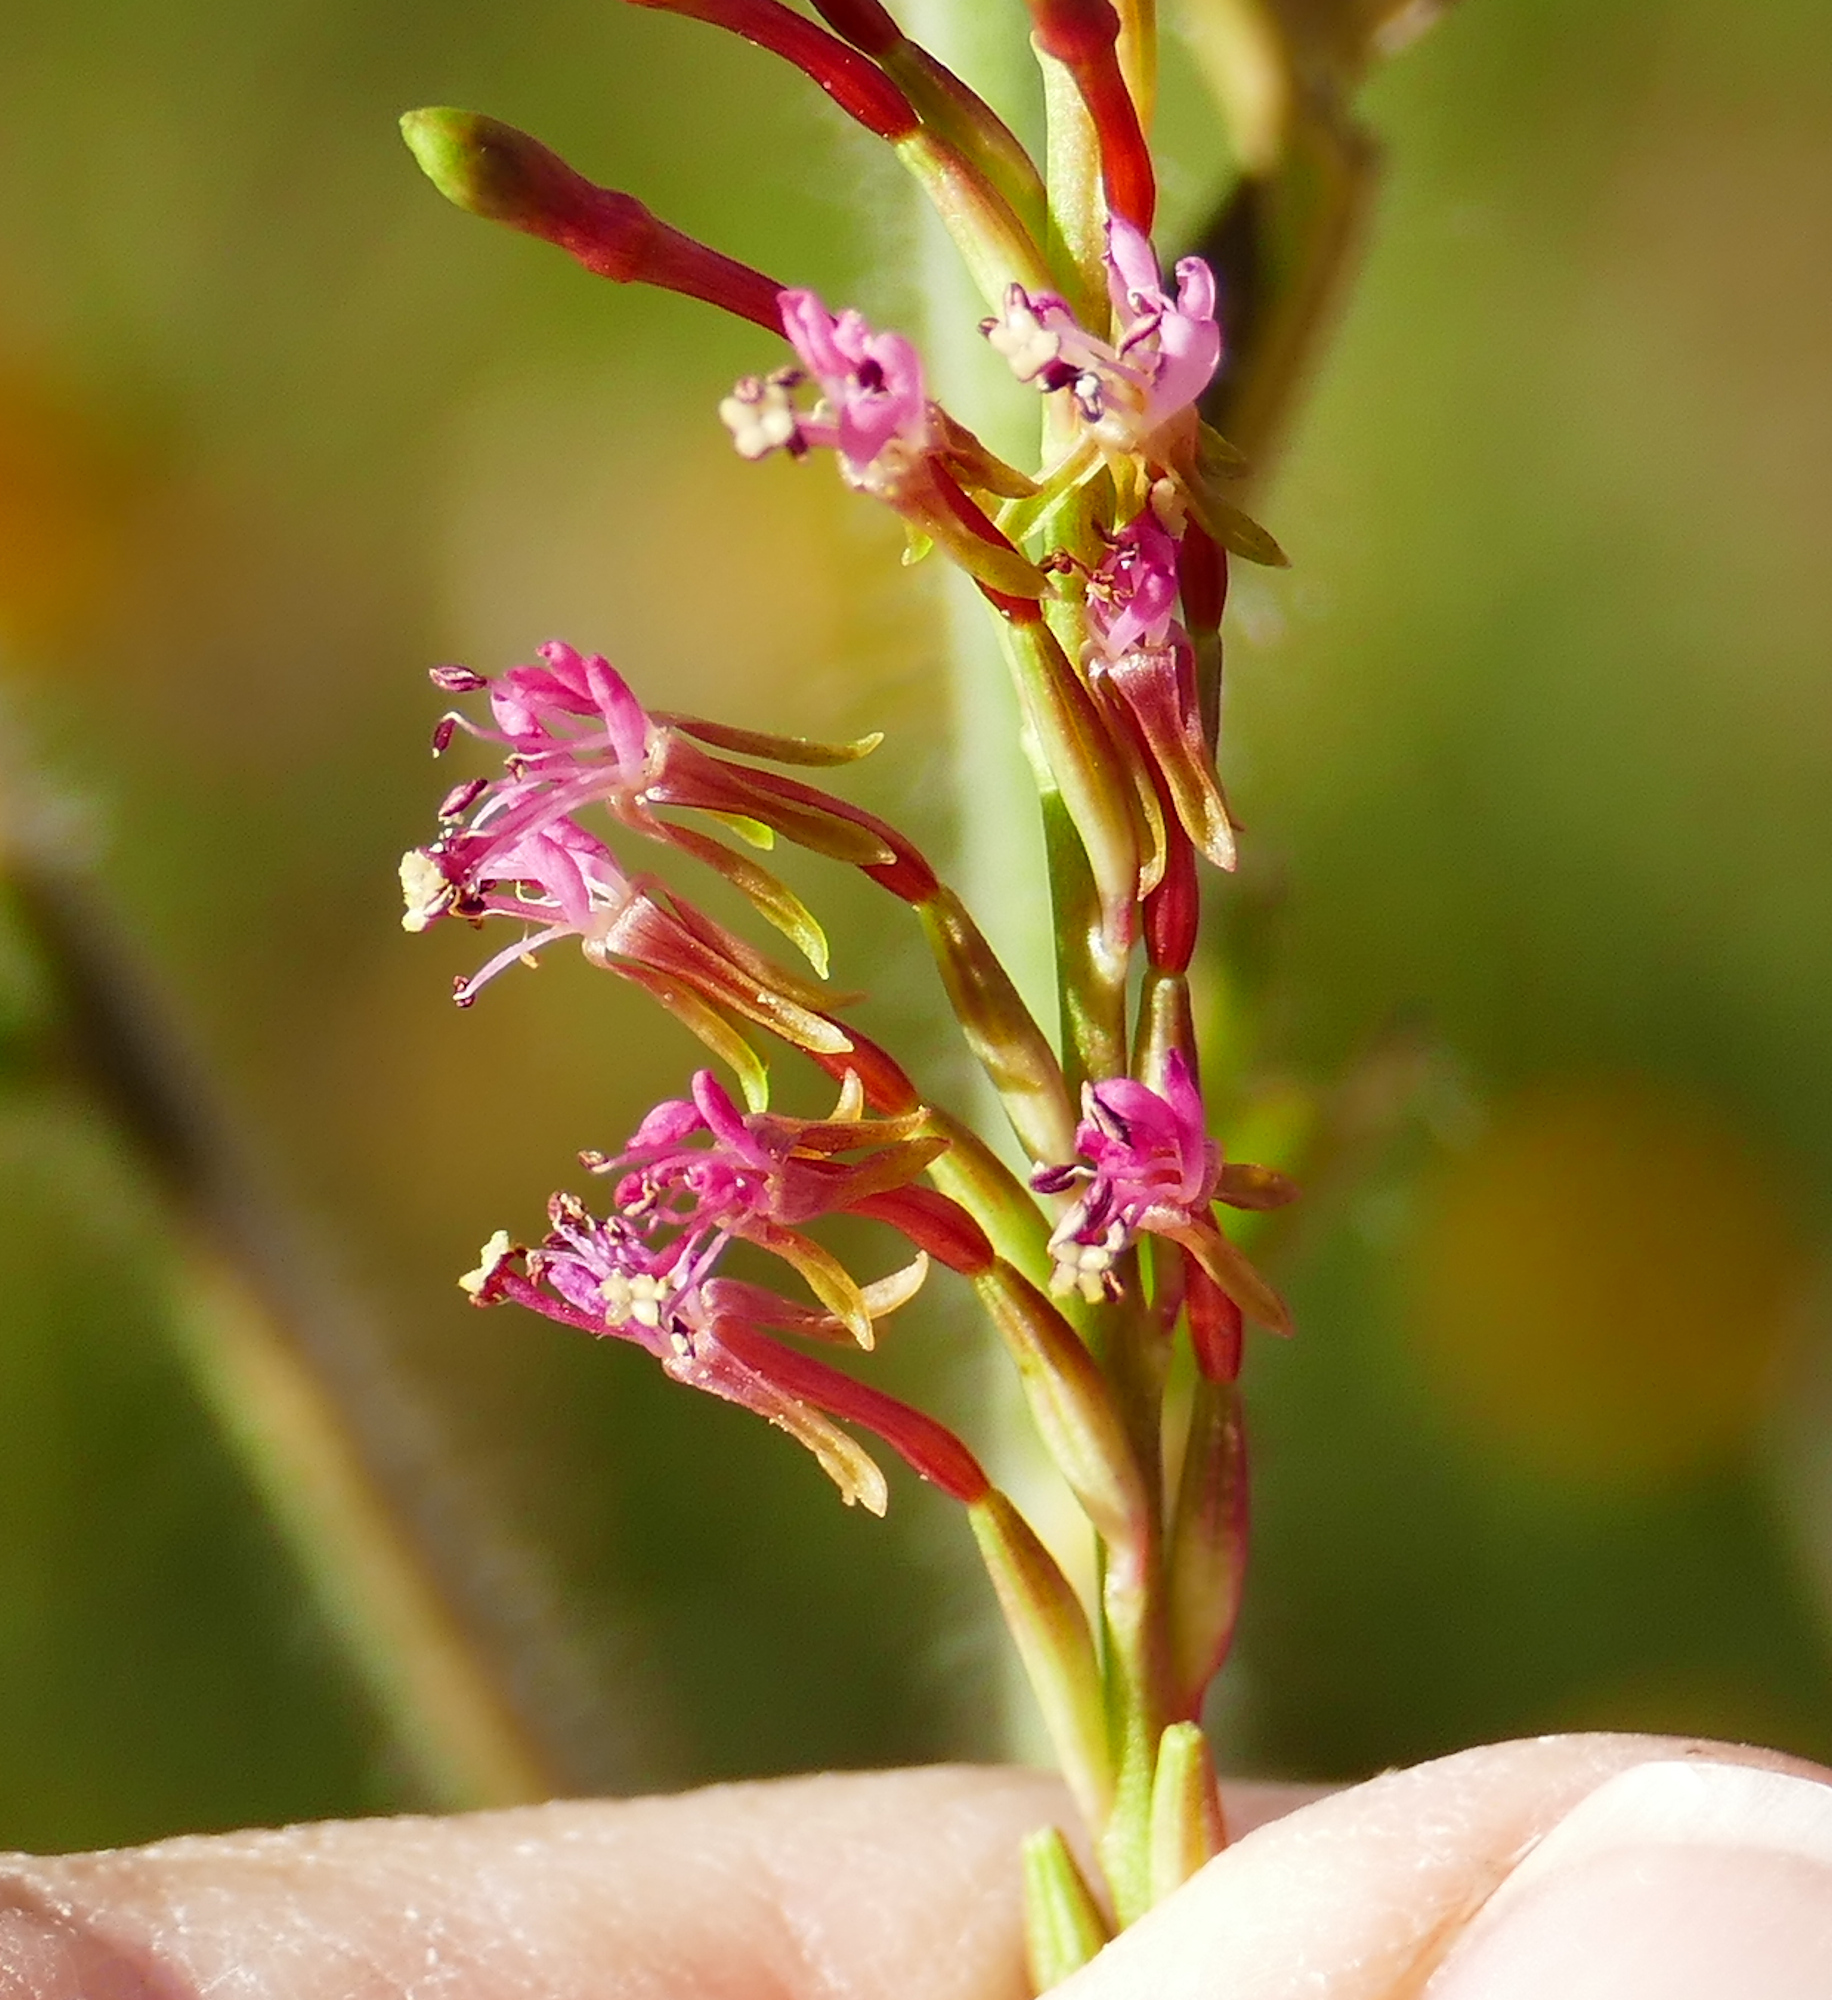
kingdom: Plantae
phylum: Tracheophyta
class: Magnoliopsida
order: Myrtales
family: Onagraceae
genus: Oenothera
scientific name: Oenothera curtiflora
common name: Velvetweed
